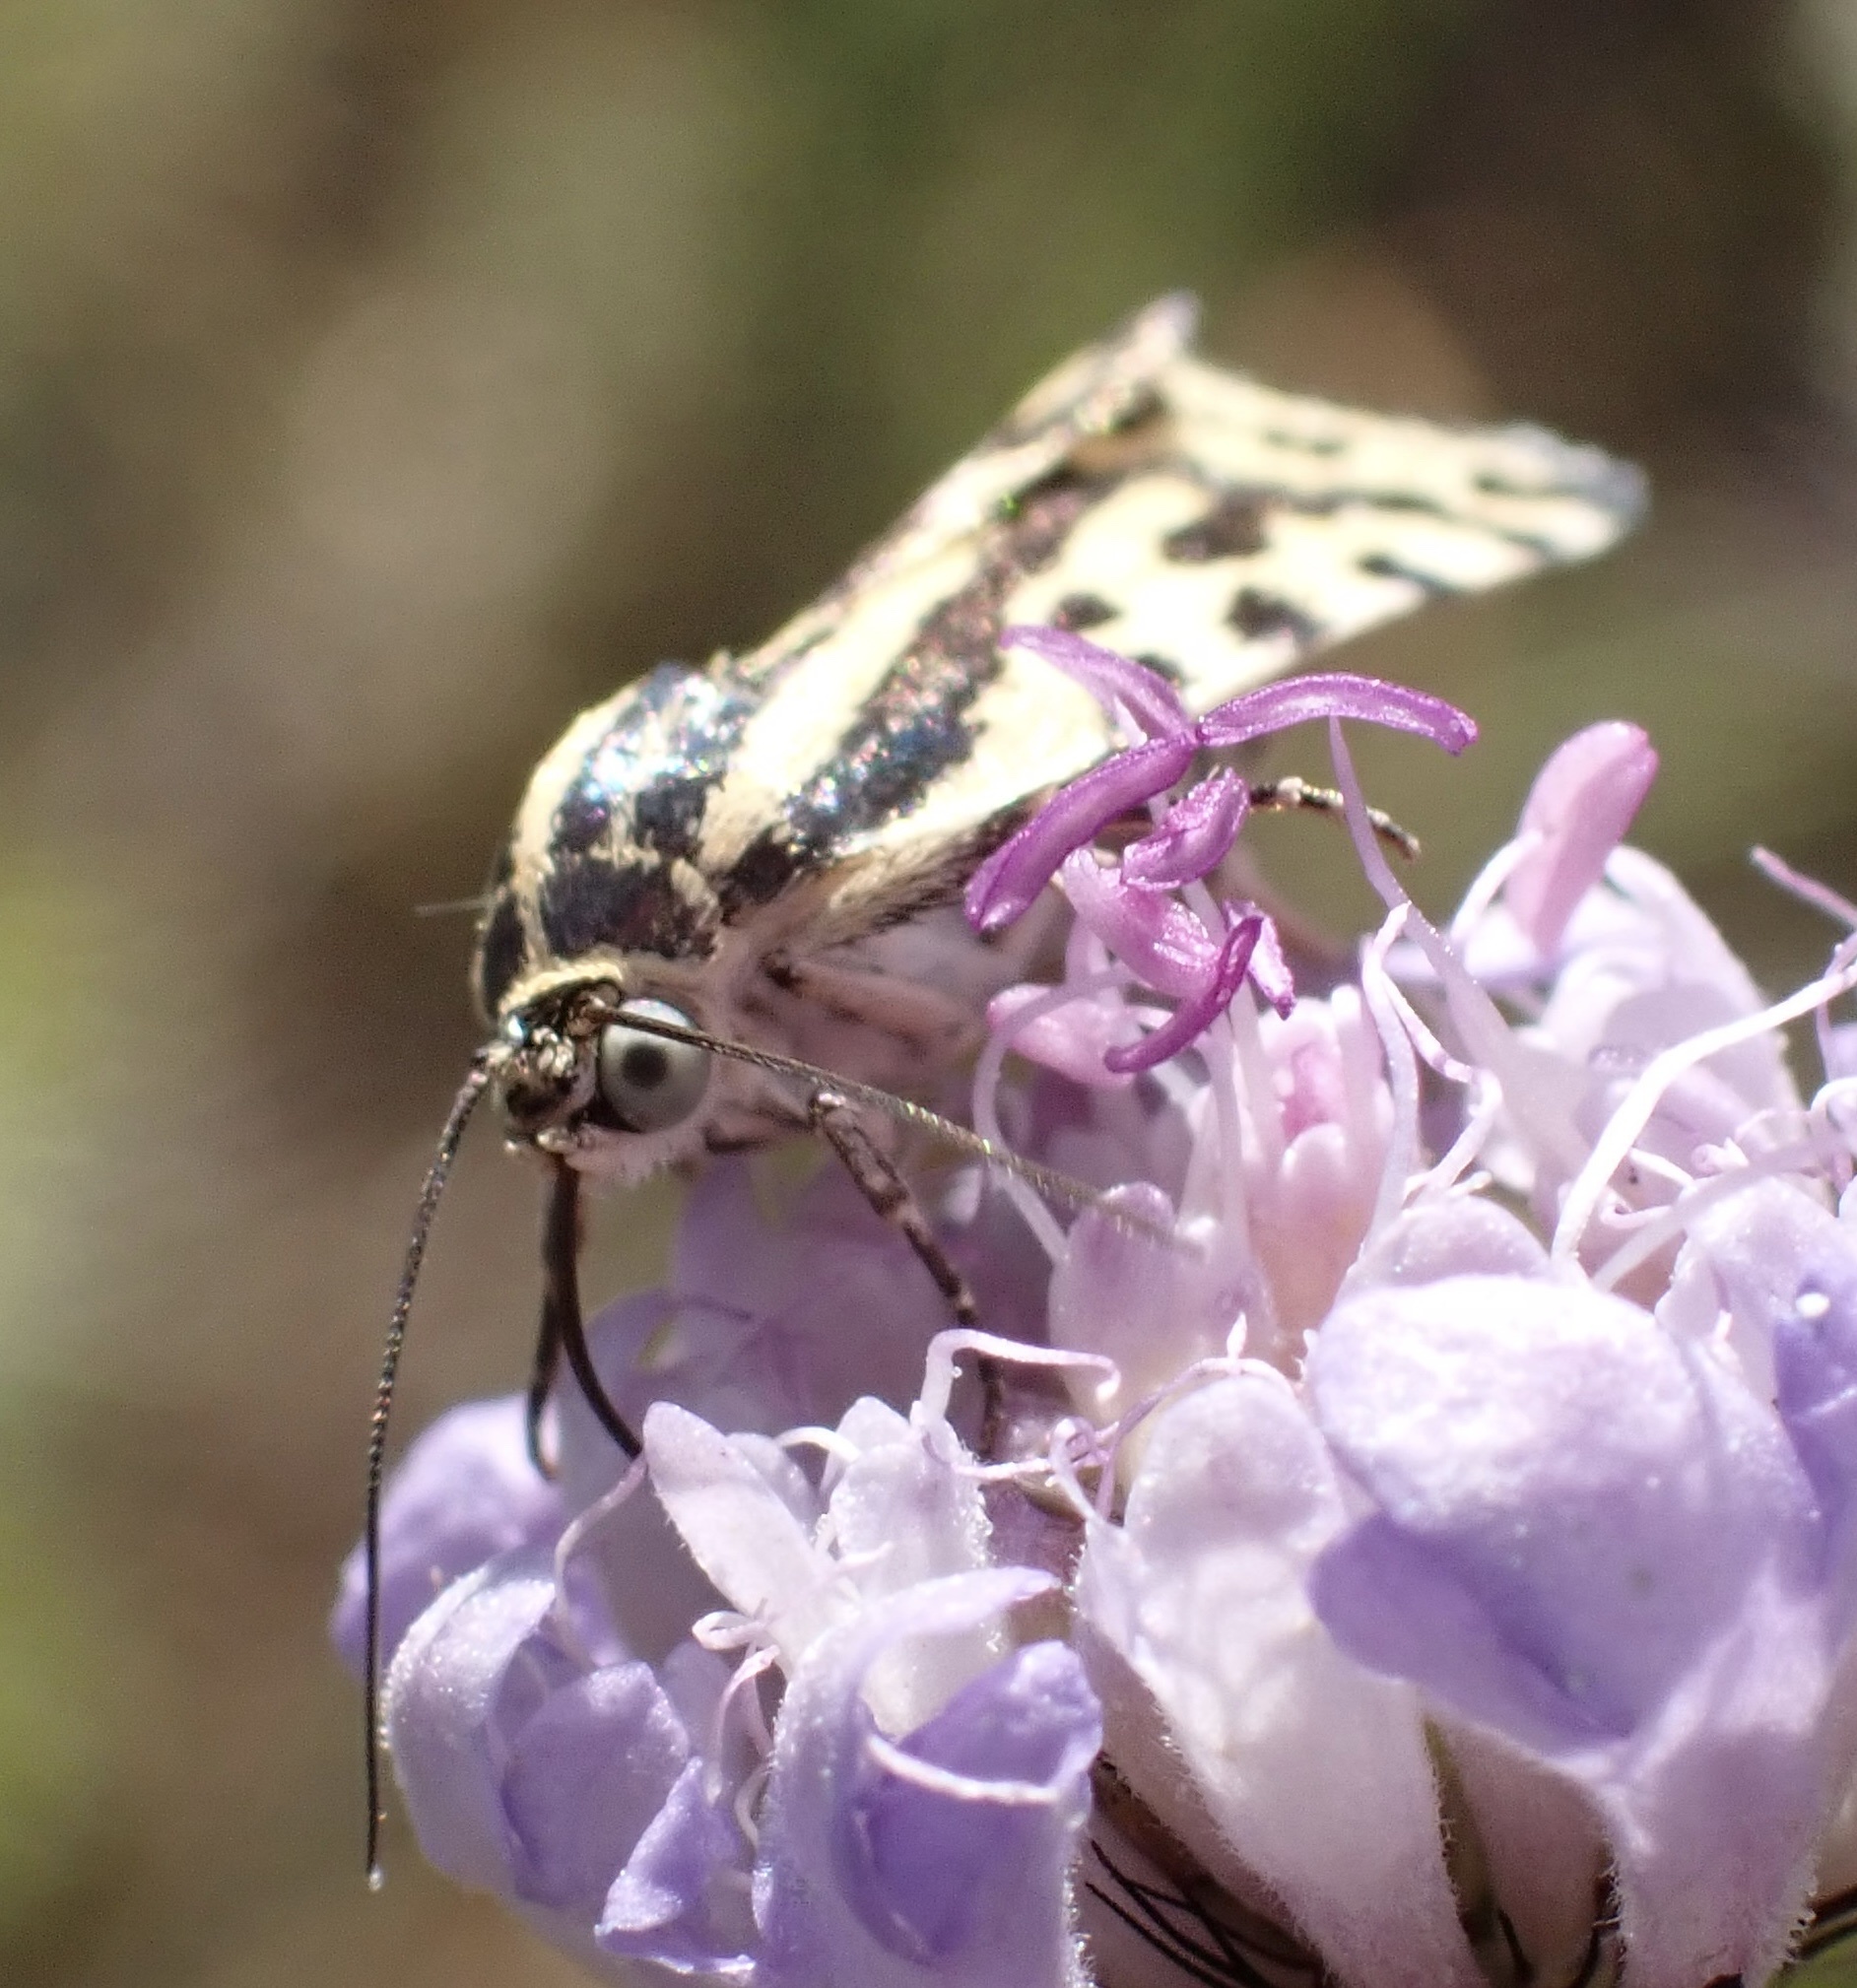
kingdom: Animalia
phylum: Arthropoda
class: Insecta
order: Lepidoptera
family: Noctuidae
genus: Acontia
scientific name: Acontia trabealis
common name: Spotted sulphur
